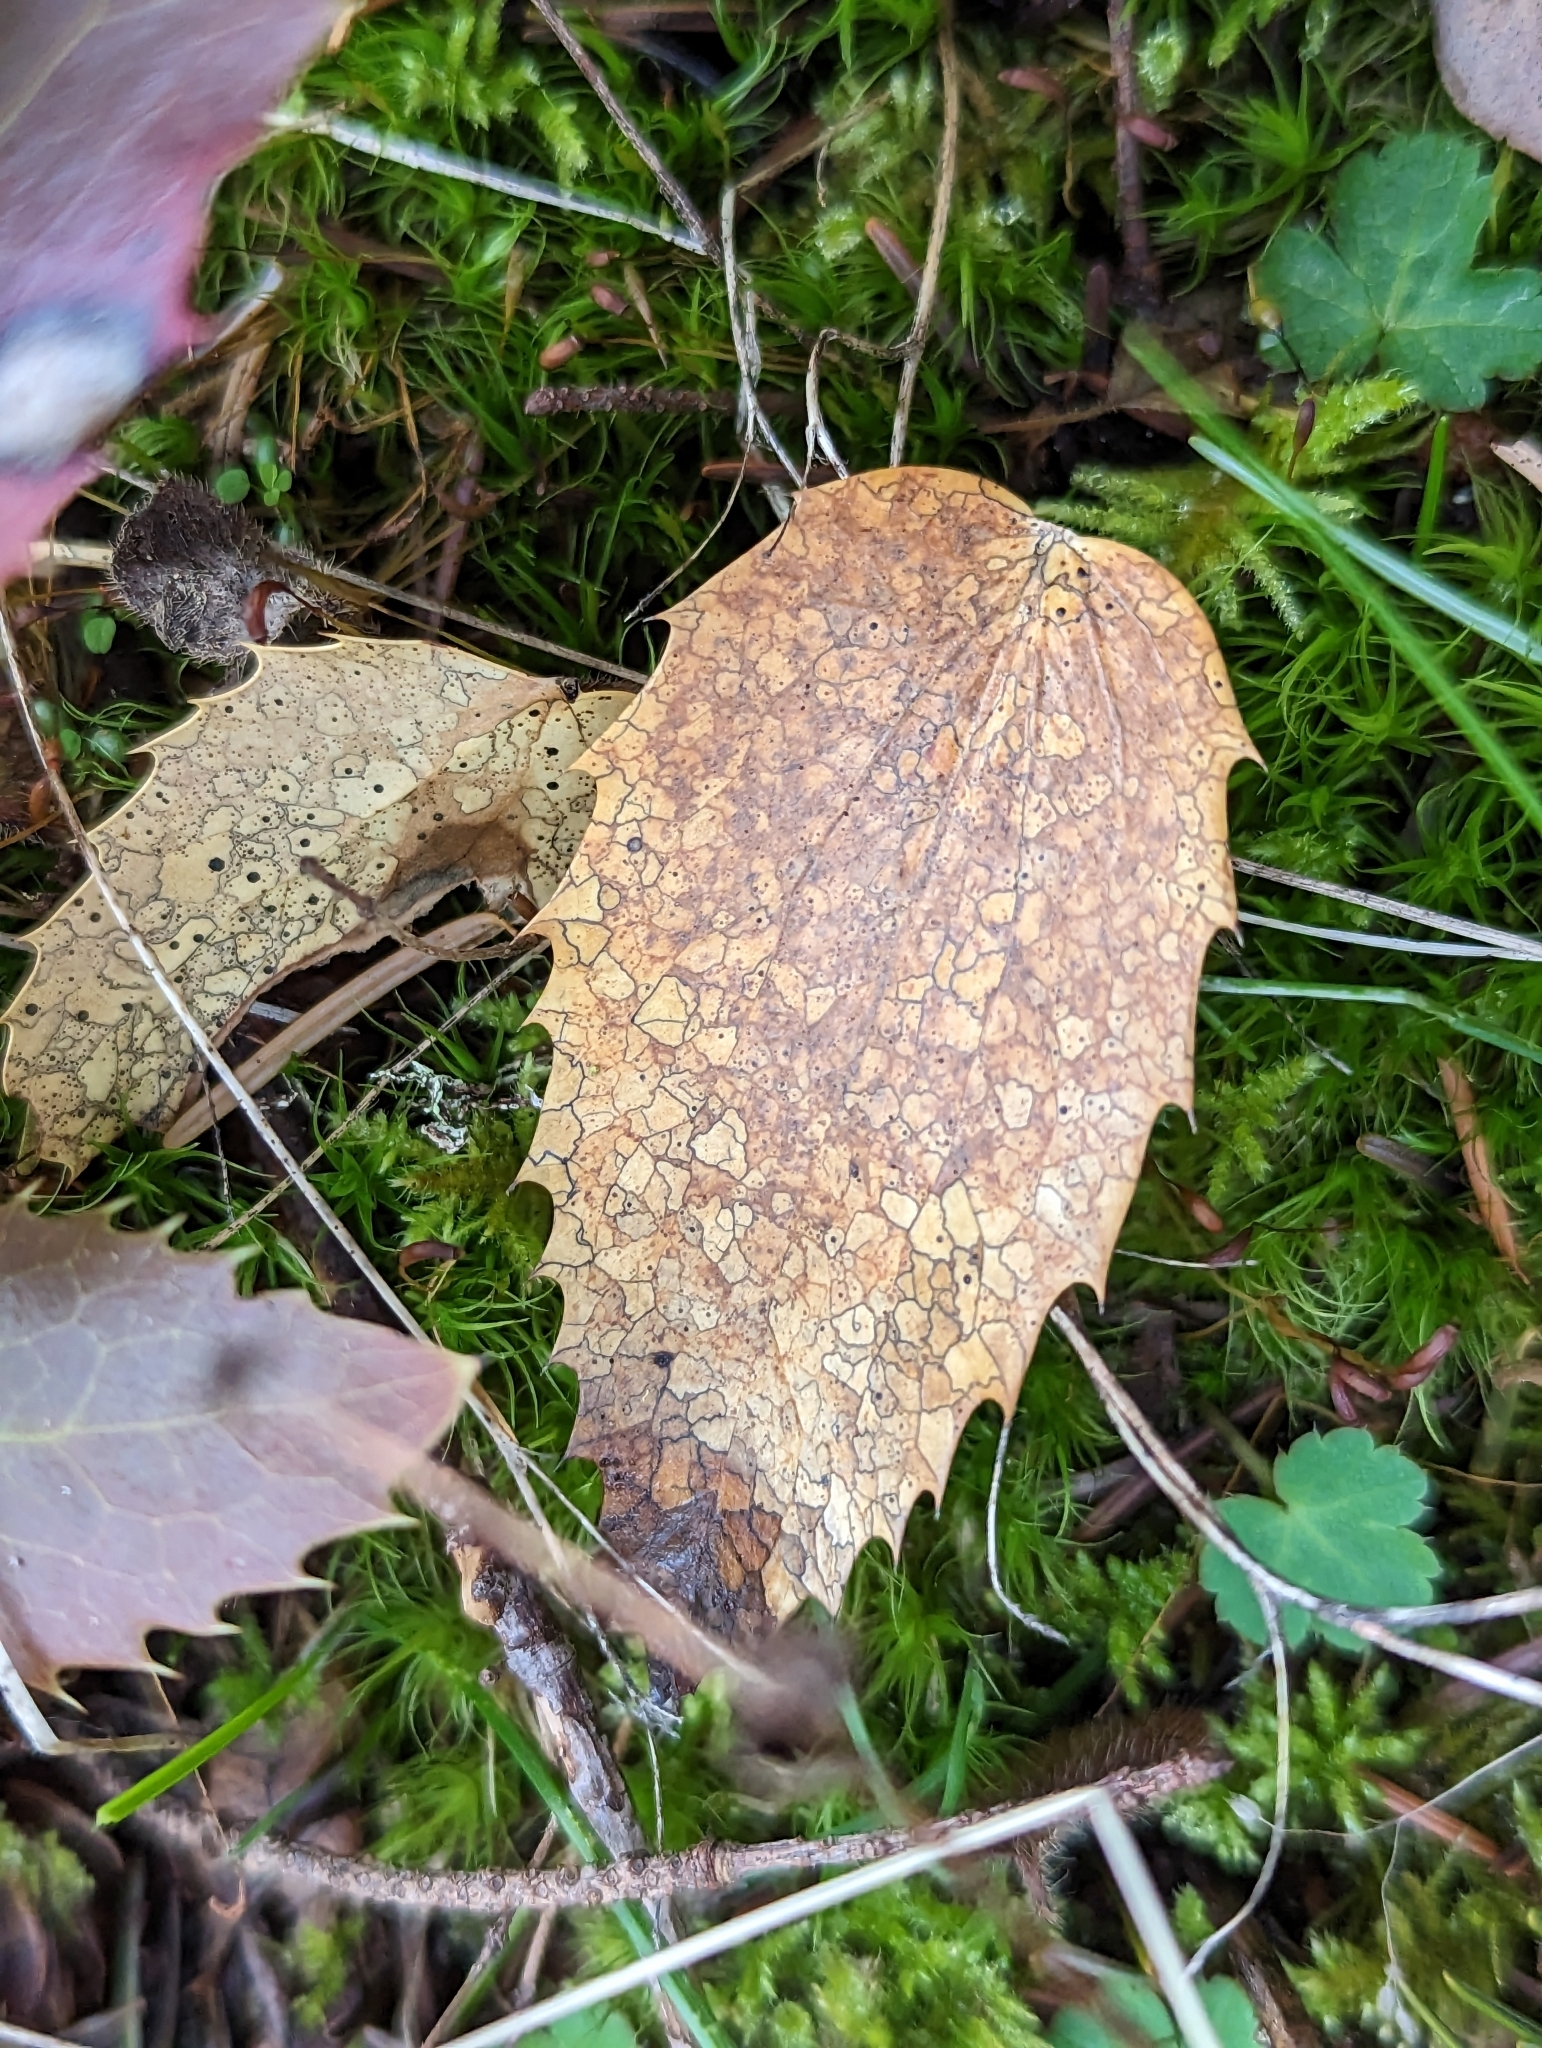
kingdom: Fungi
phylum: Ascomycota
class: Leotiomycetes
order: Rhytismatales
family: Rhytismataceae
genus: Coccomyces
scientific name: Coccomyces dentatus
